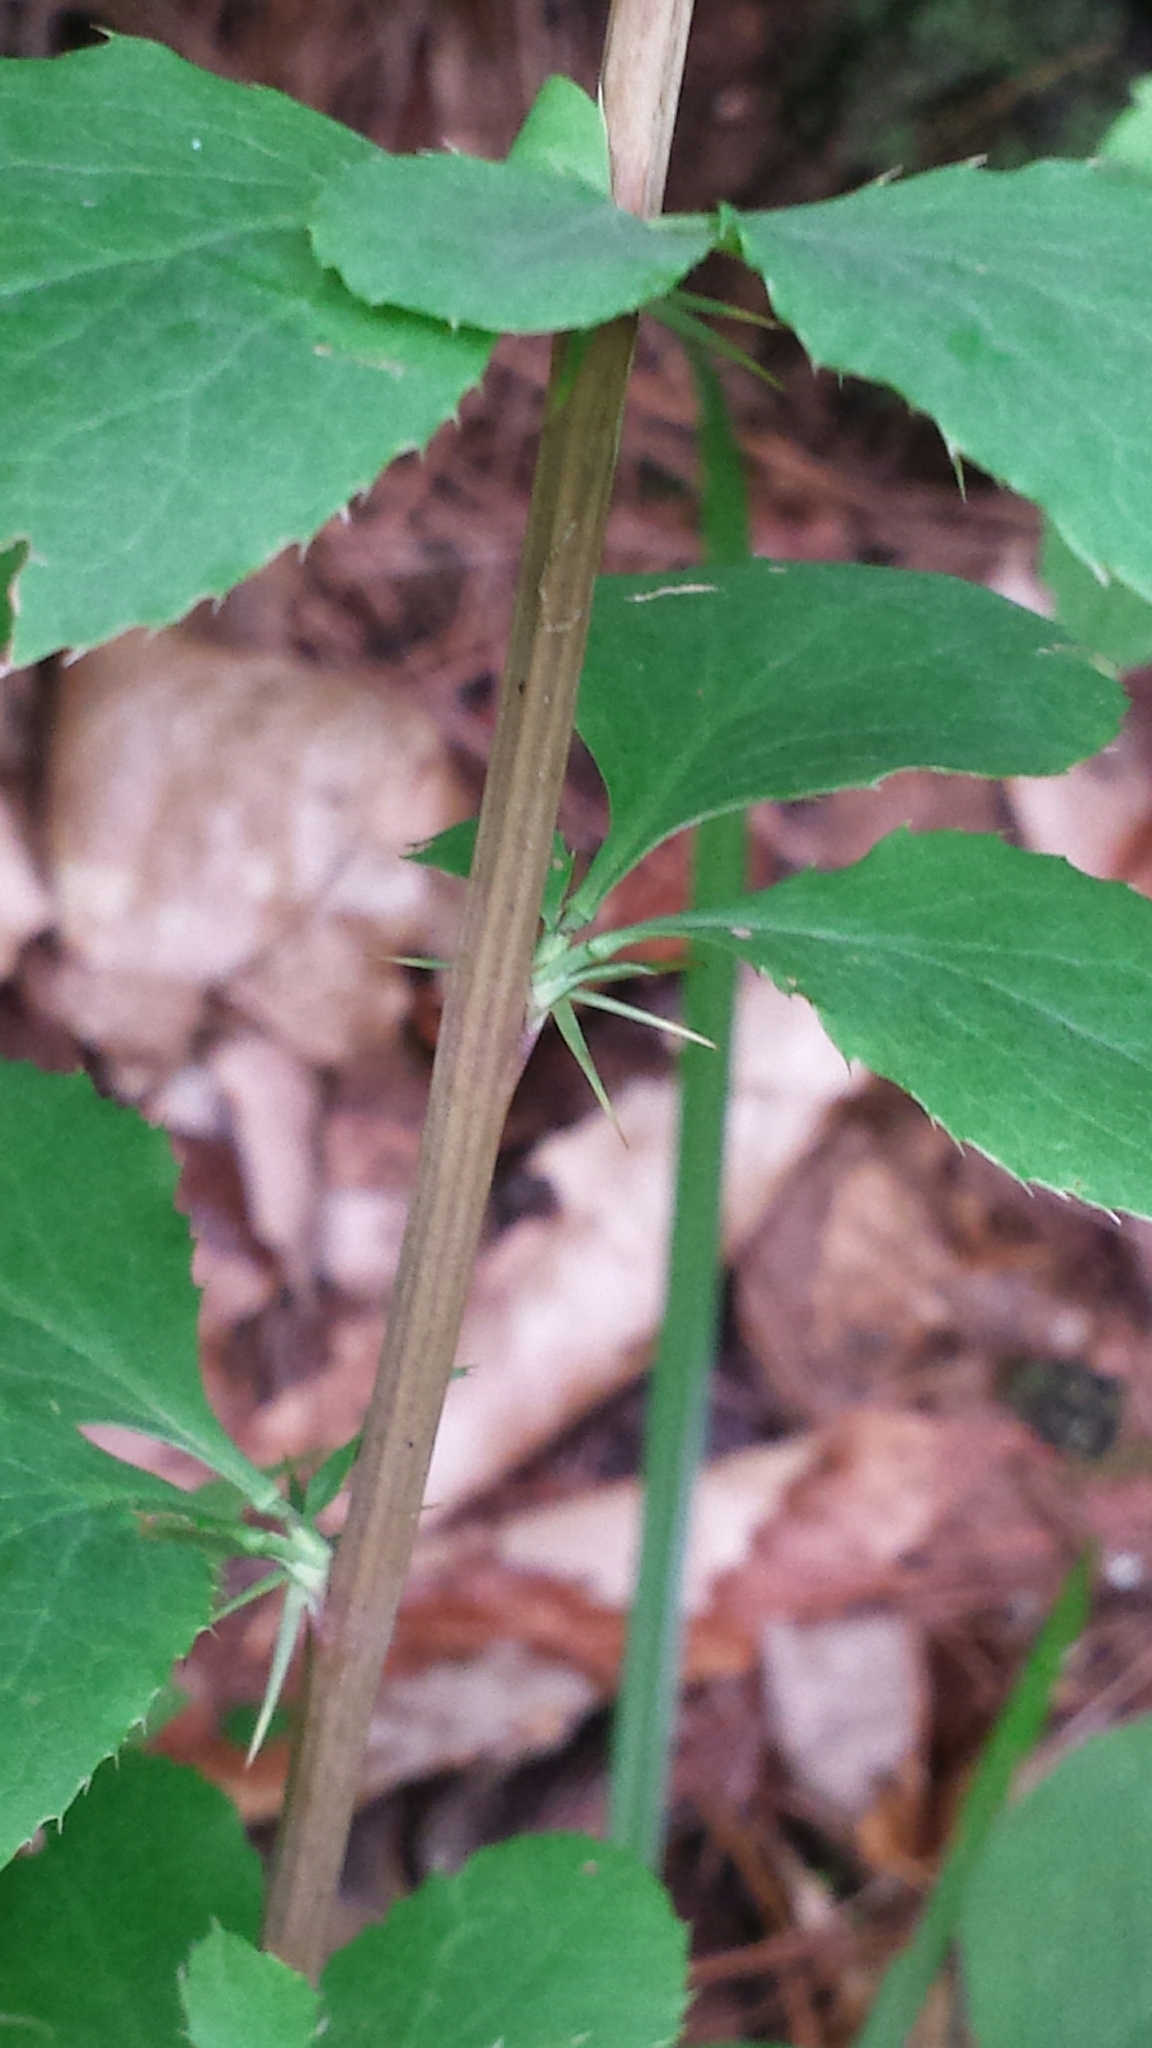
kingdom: Plantae
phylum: Tracheophyta
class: Magnoliopsida
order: Ranunculales
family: Berberidaceae
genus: Berberis
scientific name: Berberis vulgaris
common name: Barberry
